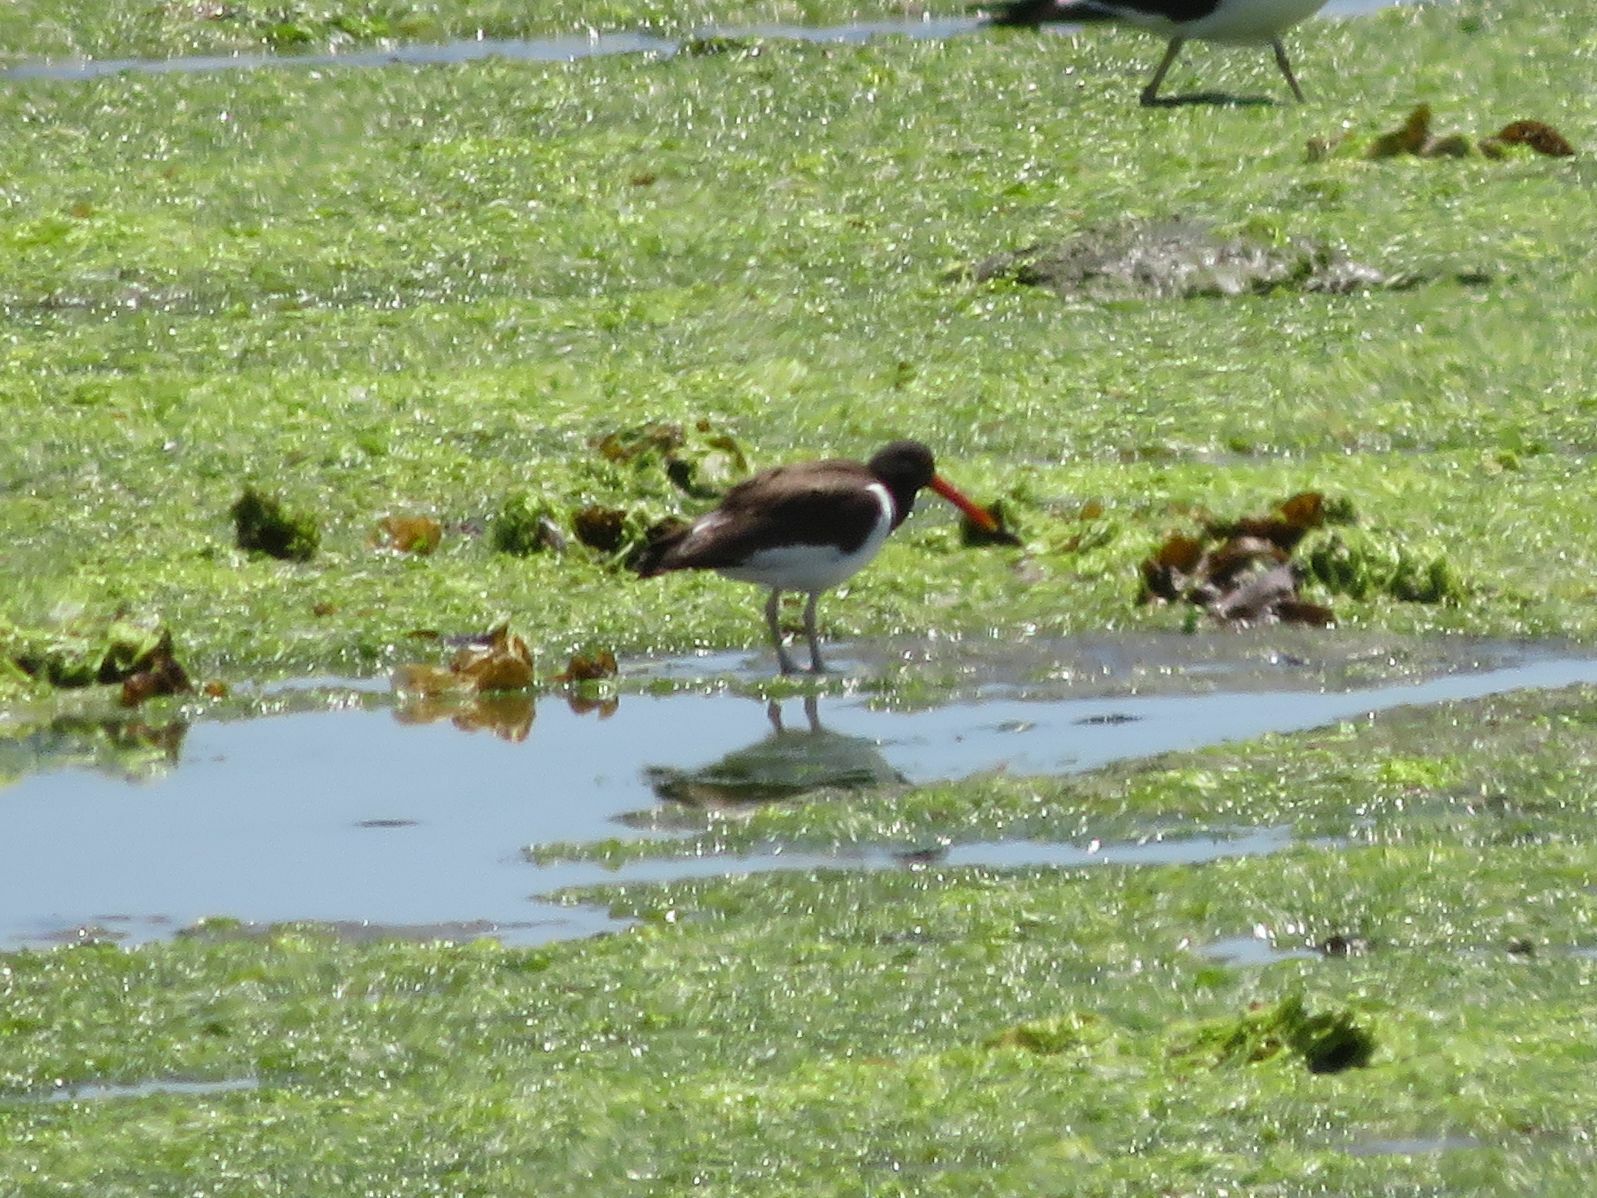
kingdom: Animalia
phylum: Chordata
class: Aves
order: Charadriiformes
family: Haematopodidae
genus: Haematopus
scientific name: Haematopus palliatus
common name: American oystercatcher
